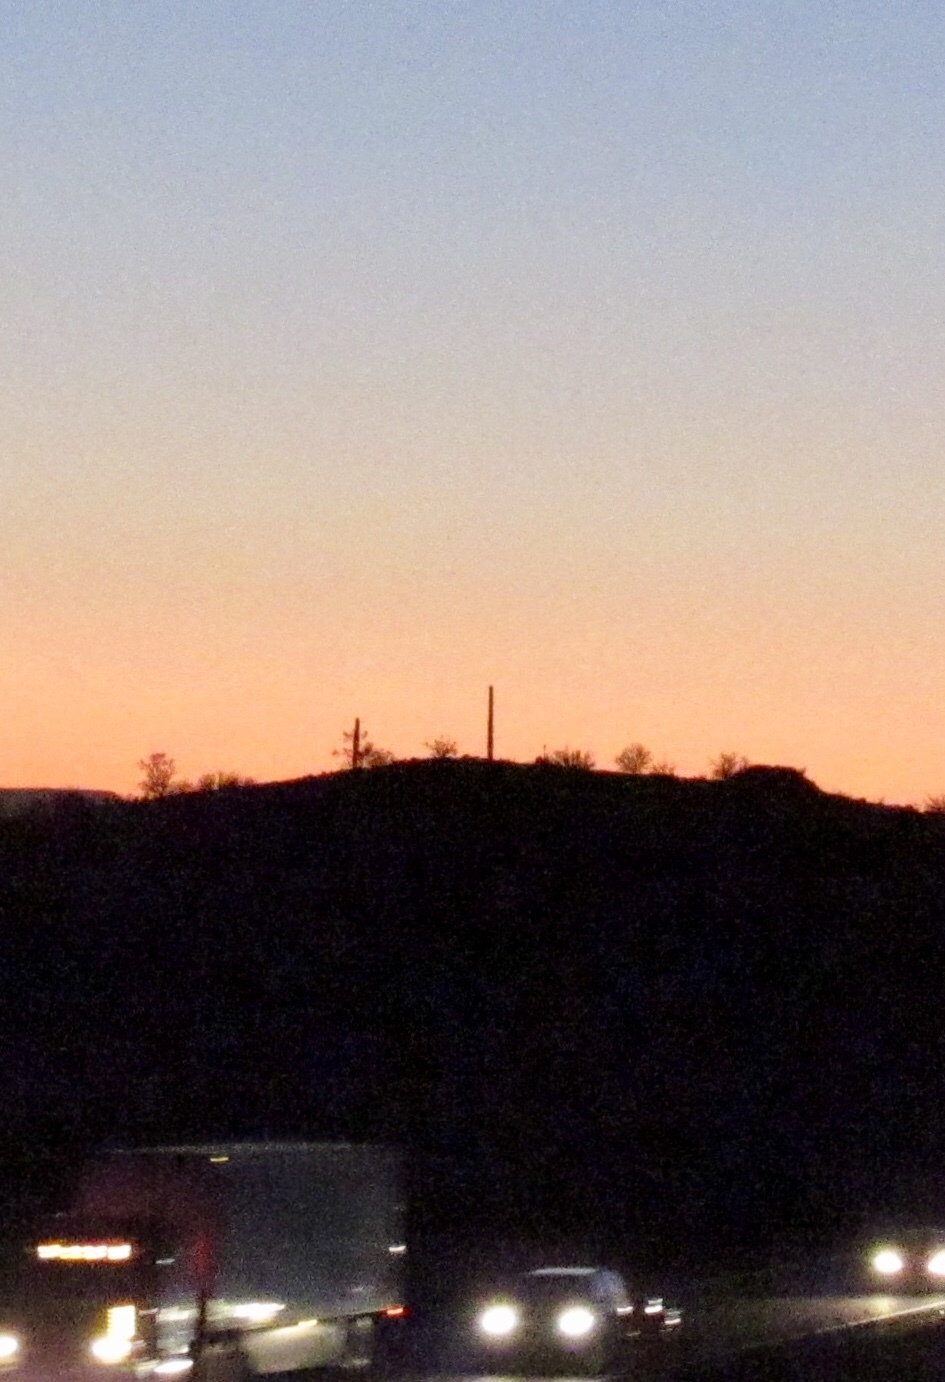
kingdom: Plantae
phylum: Tracheophyta
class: Magnoliopsida
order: Caryophyllales
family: Cactaceae
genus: Carnegiea
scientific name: Carnegiea gigantea
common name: Saguaro
